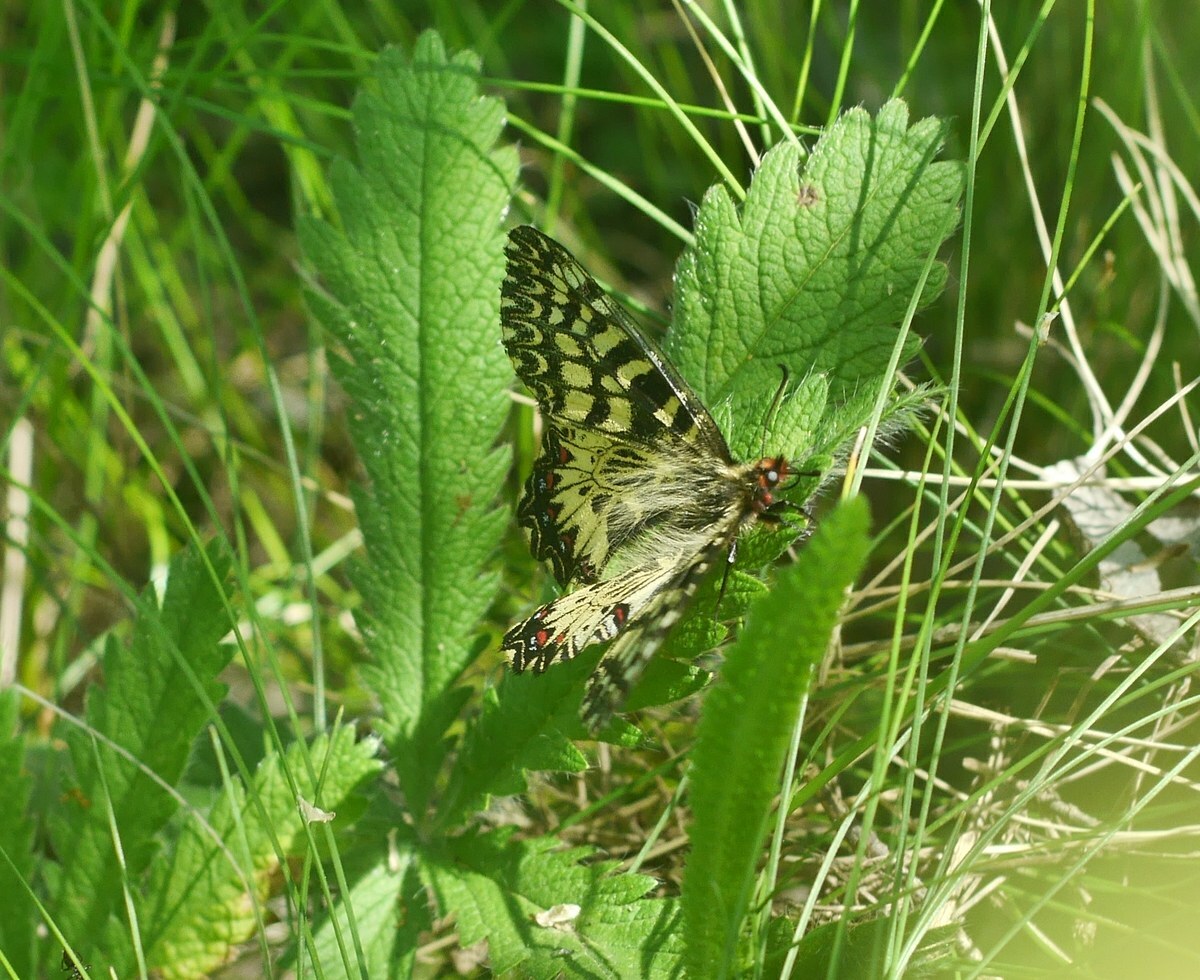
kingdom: Animalia
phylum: Arthropoda
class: Insecta
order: Lepidoptera
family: Papilionidae
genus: Zerynthia
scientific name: Zerynthia polyxena
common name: Southern festoon
